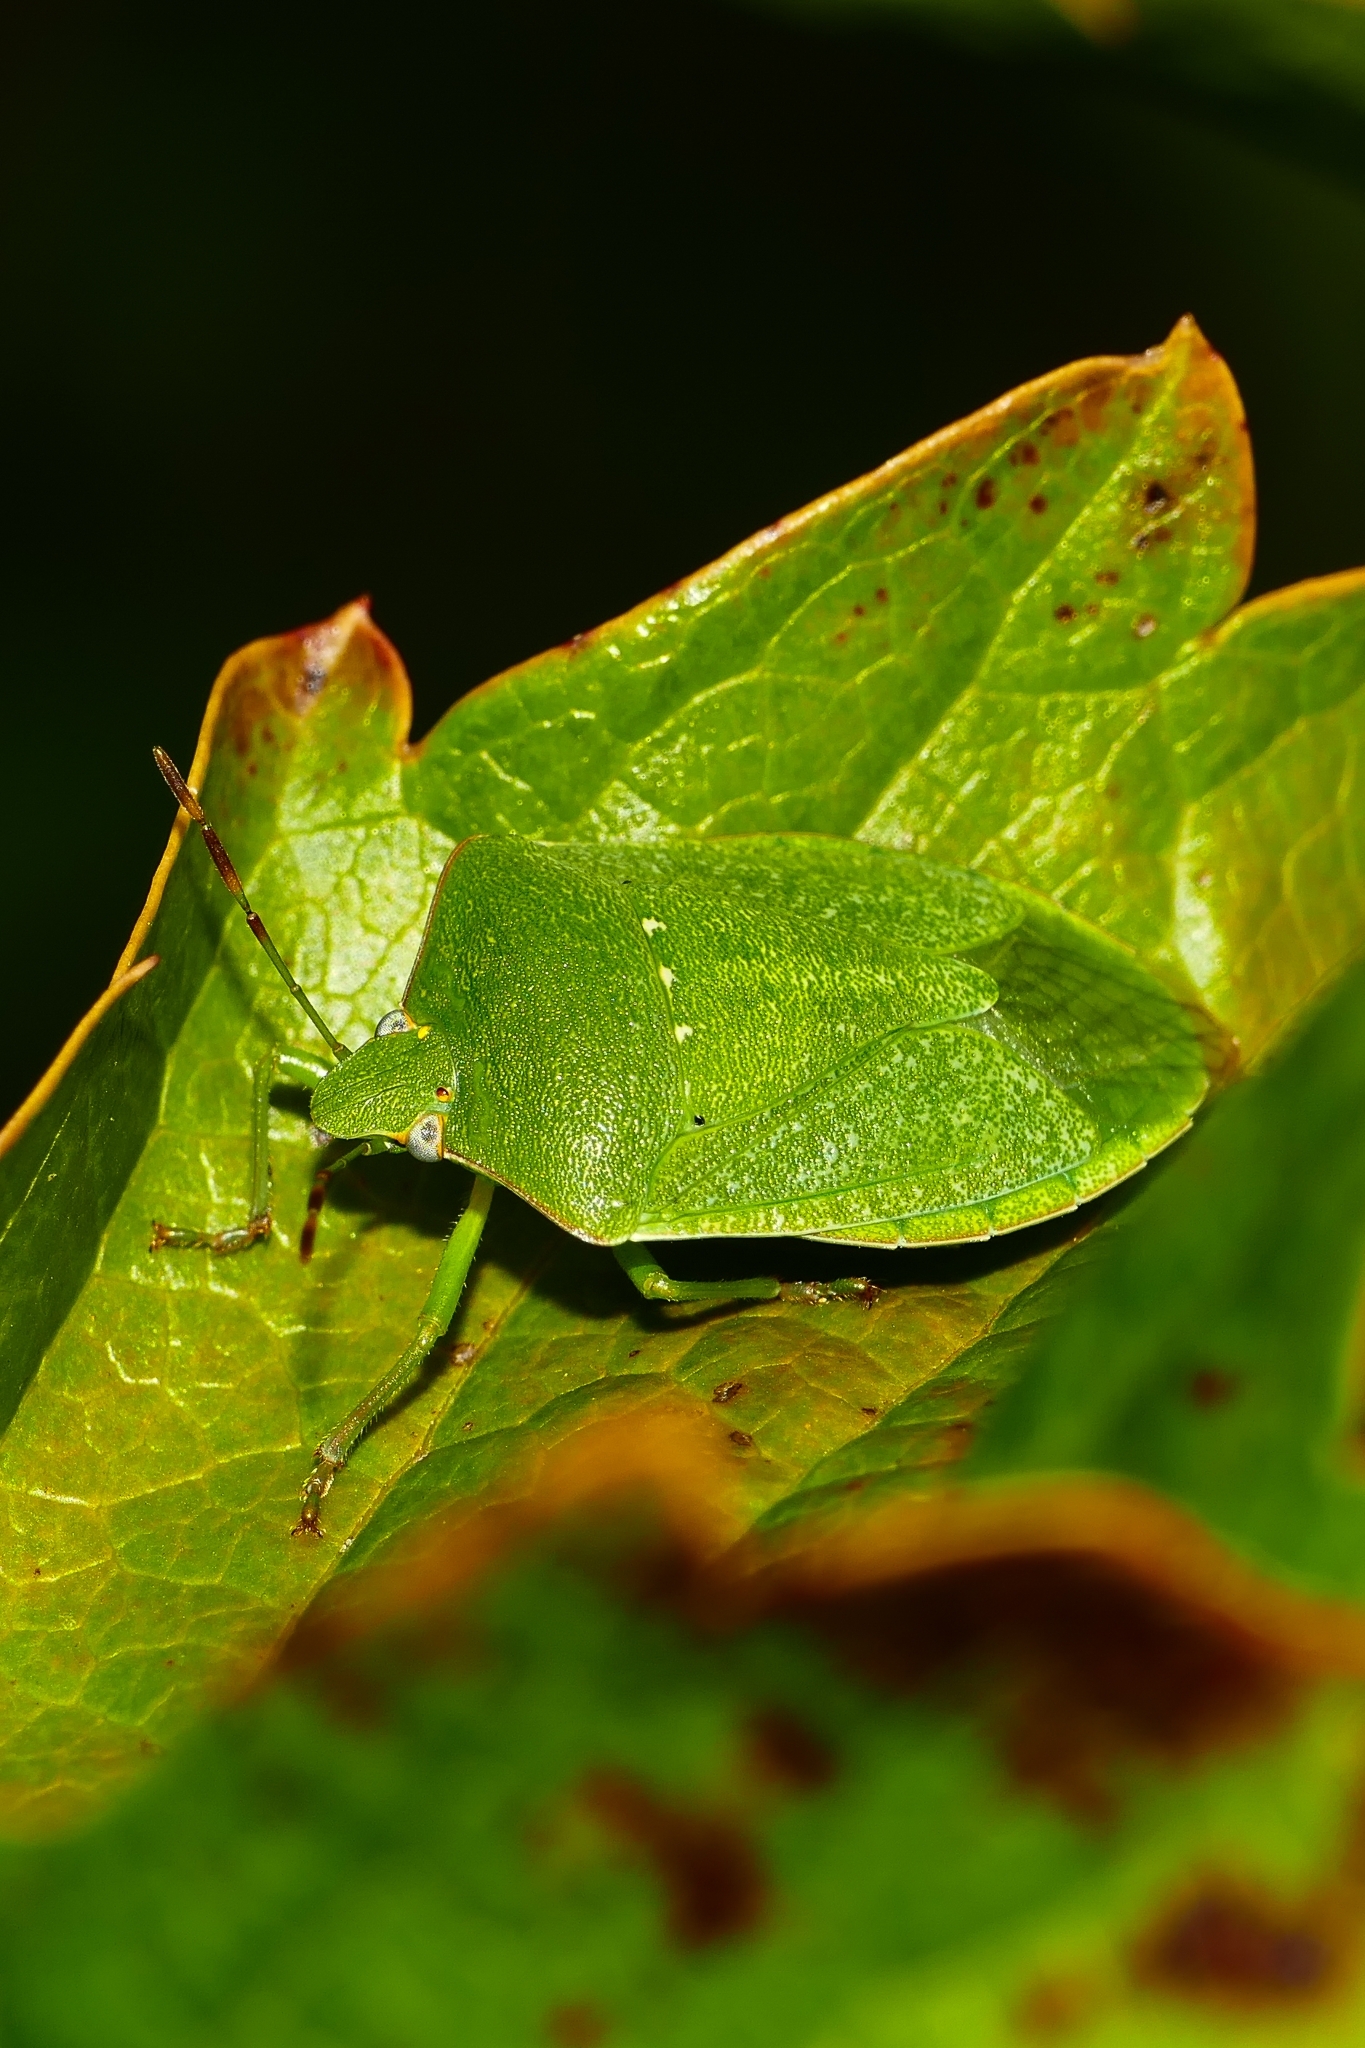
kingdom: Animalia
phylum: Arthropoda
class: Insecta
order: Hemiptera
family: Pentatomidae
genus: Nezara
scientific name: Nezara viridula
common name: Southern green stink bug
